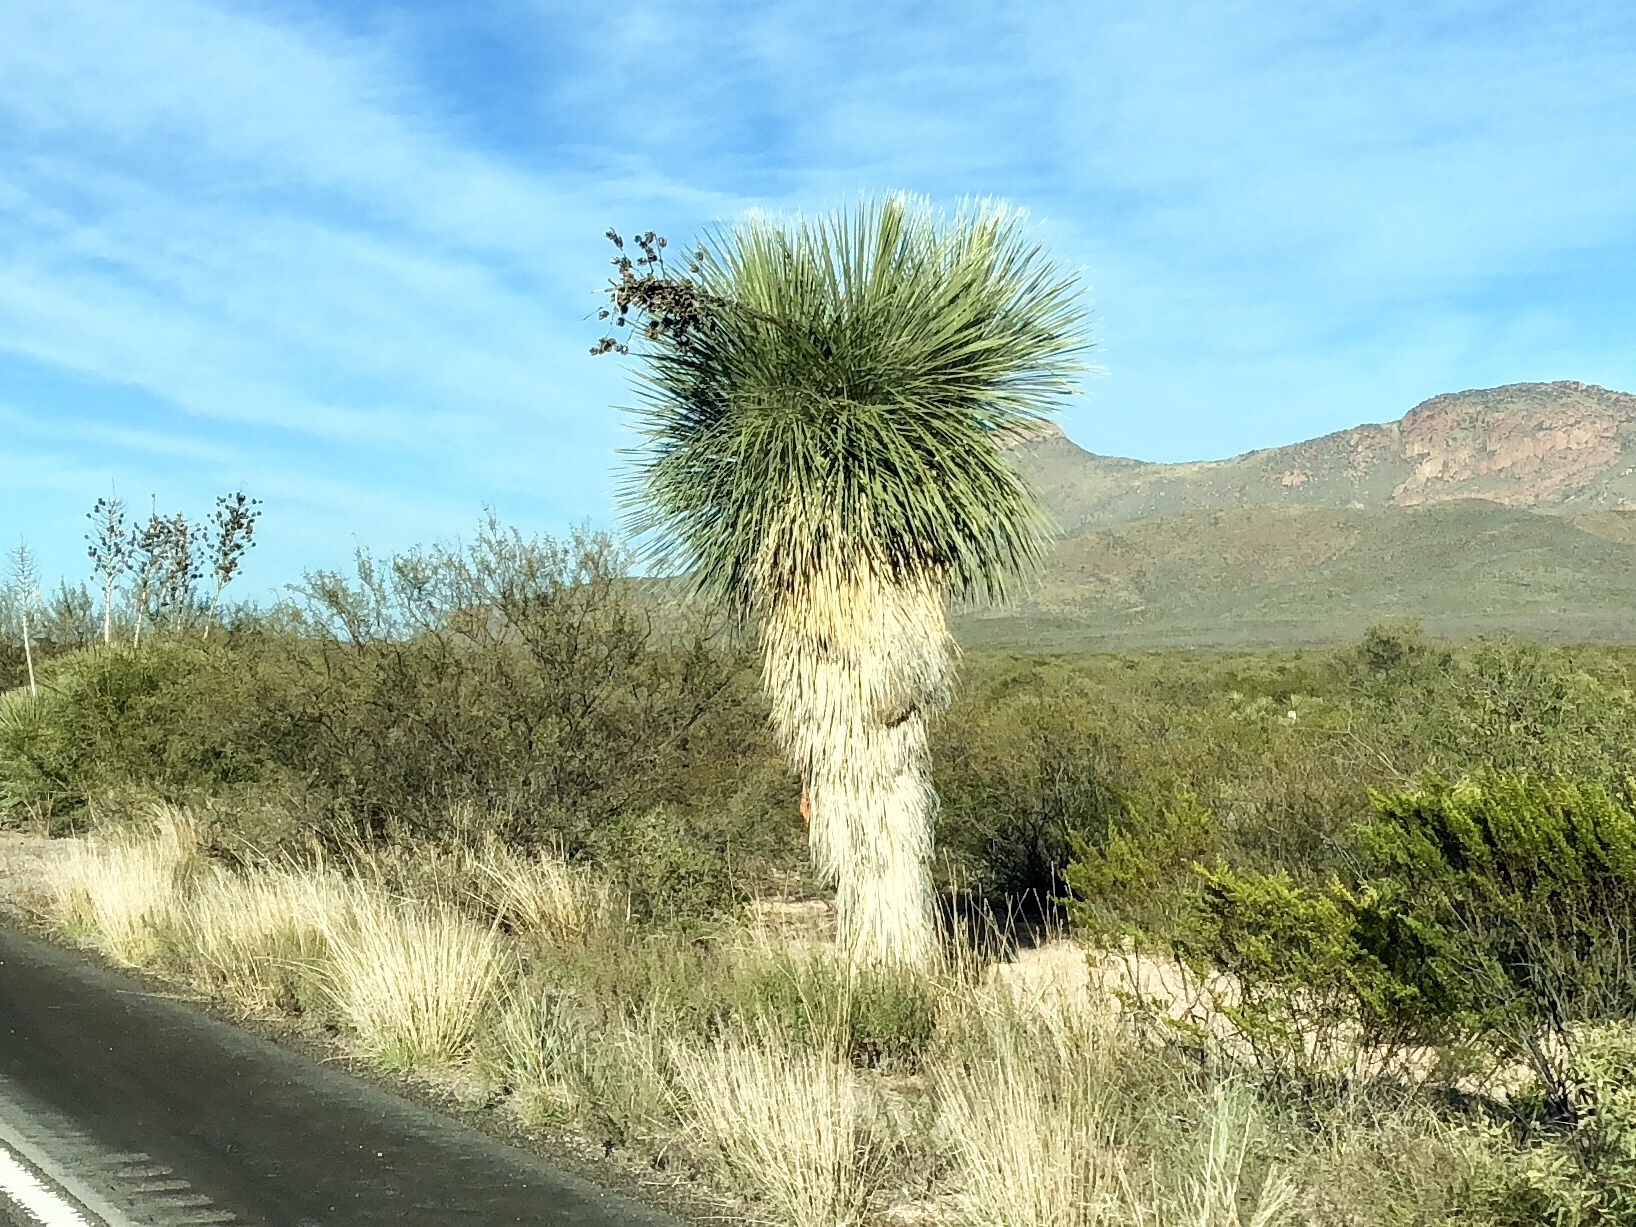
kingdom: Plantae
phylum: Tracheophyta
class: Liliopsida
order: Asparagales
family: Asparagaceae
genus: Yucca
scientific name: Yucca elata
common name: Palmella
